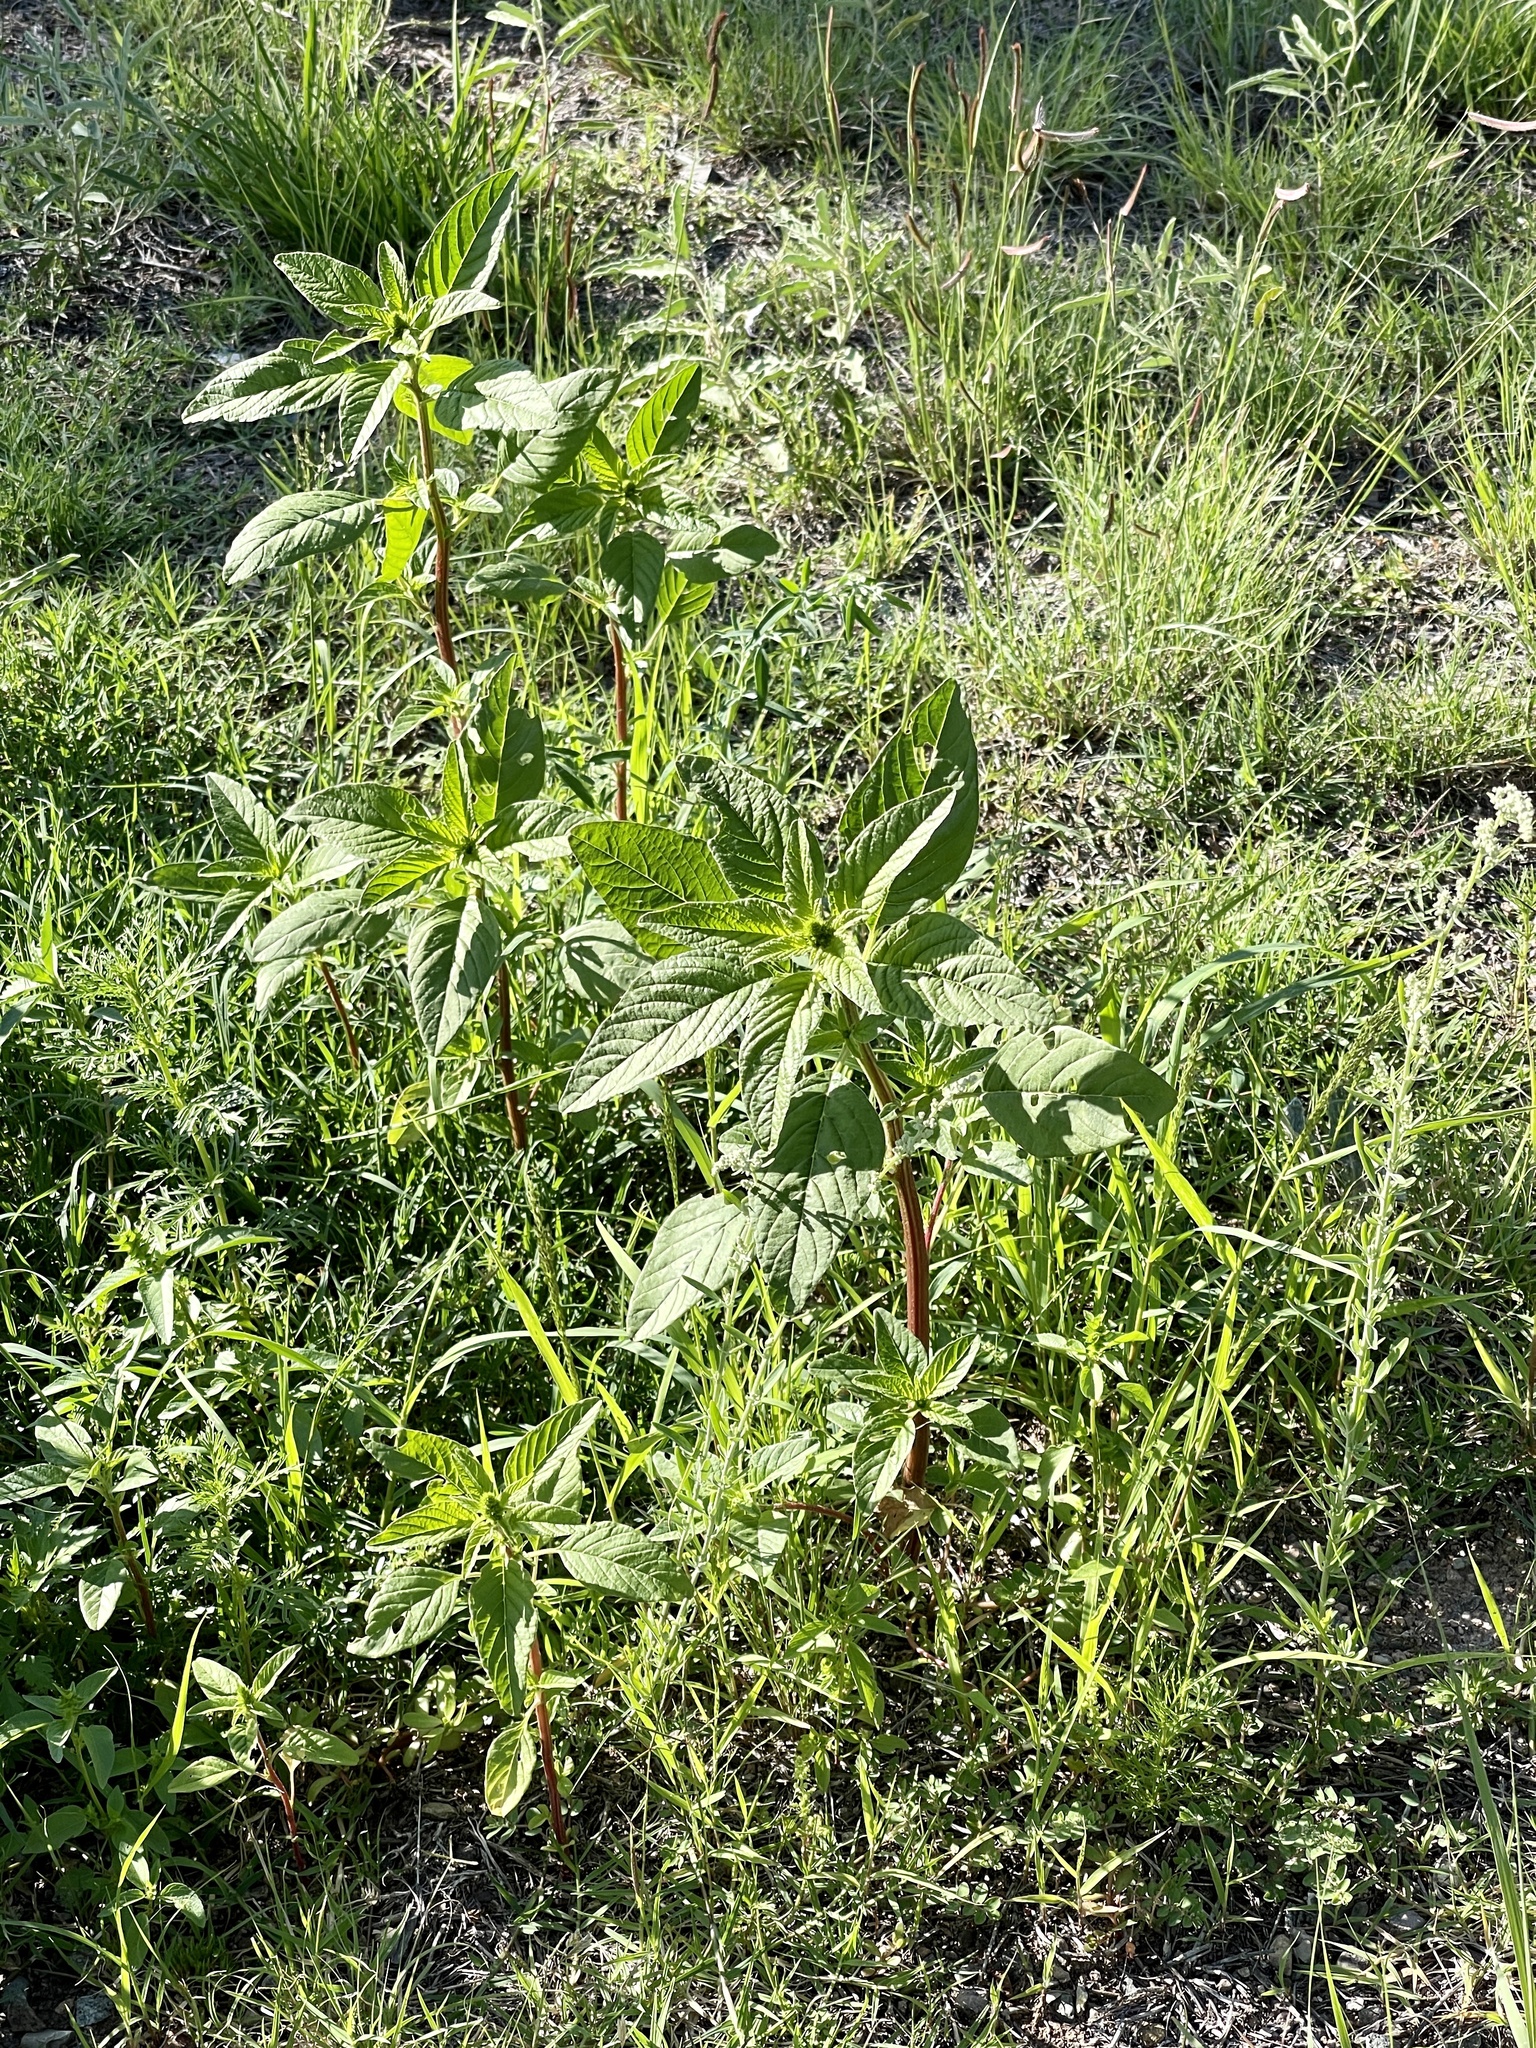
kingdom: Plantae
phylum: Tracheophyta
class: Magnoliopsida
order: Caryophyllales
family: Amaranthaceae
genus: Amaranthus
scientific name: Amaranthus palmeri
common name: Dioecious amaranth
